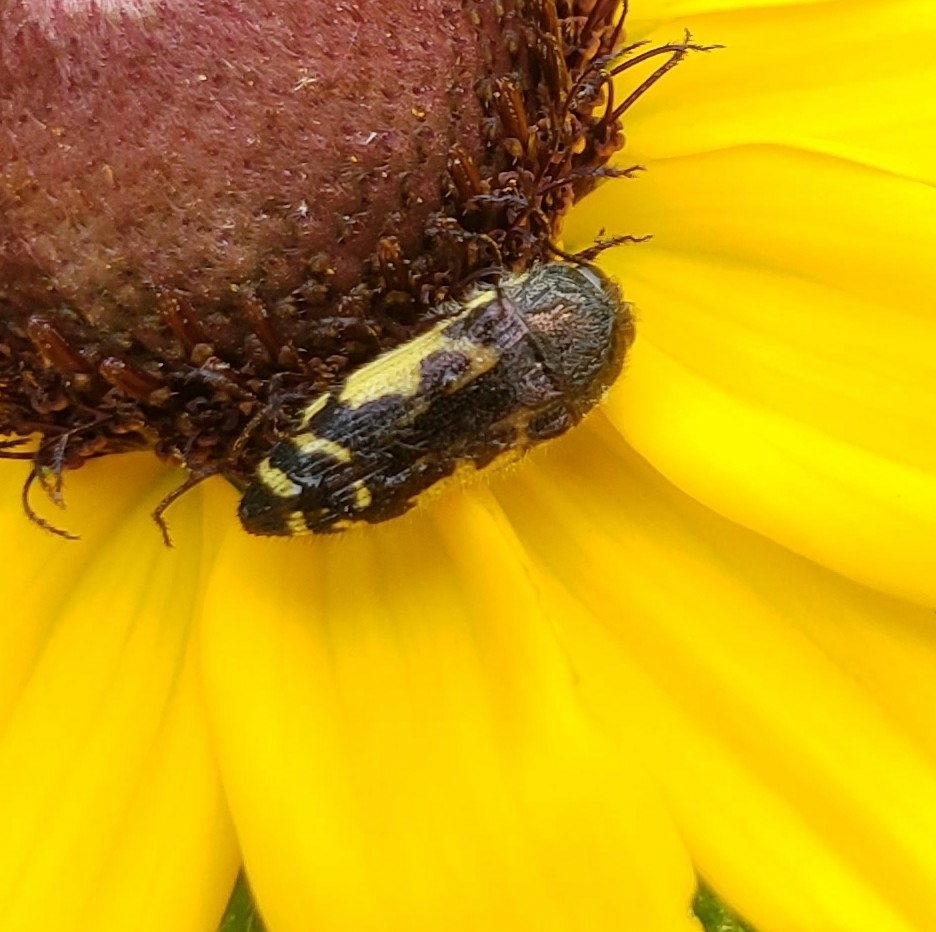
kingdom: Animalia
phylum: Arthropoda
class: Insecta
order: Coleoptera
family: Buprestidae
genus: Acmaeodera
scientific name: Acmaeodera pulchella
